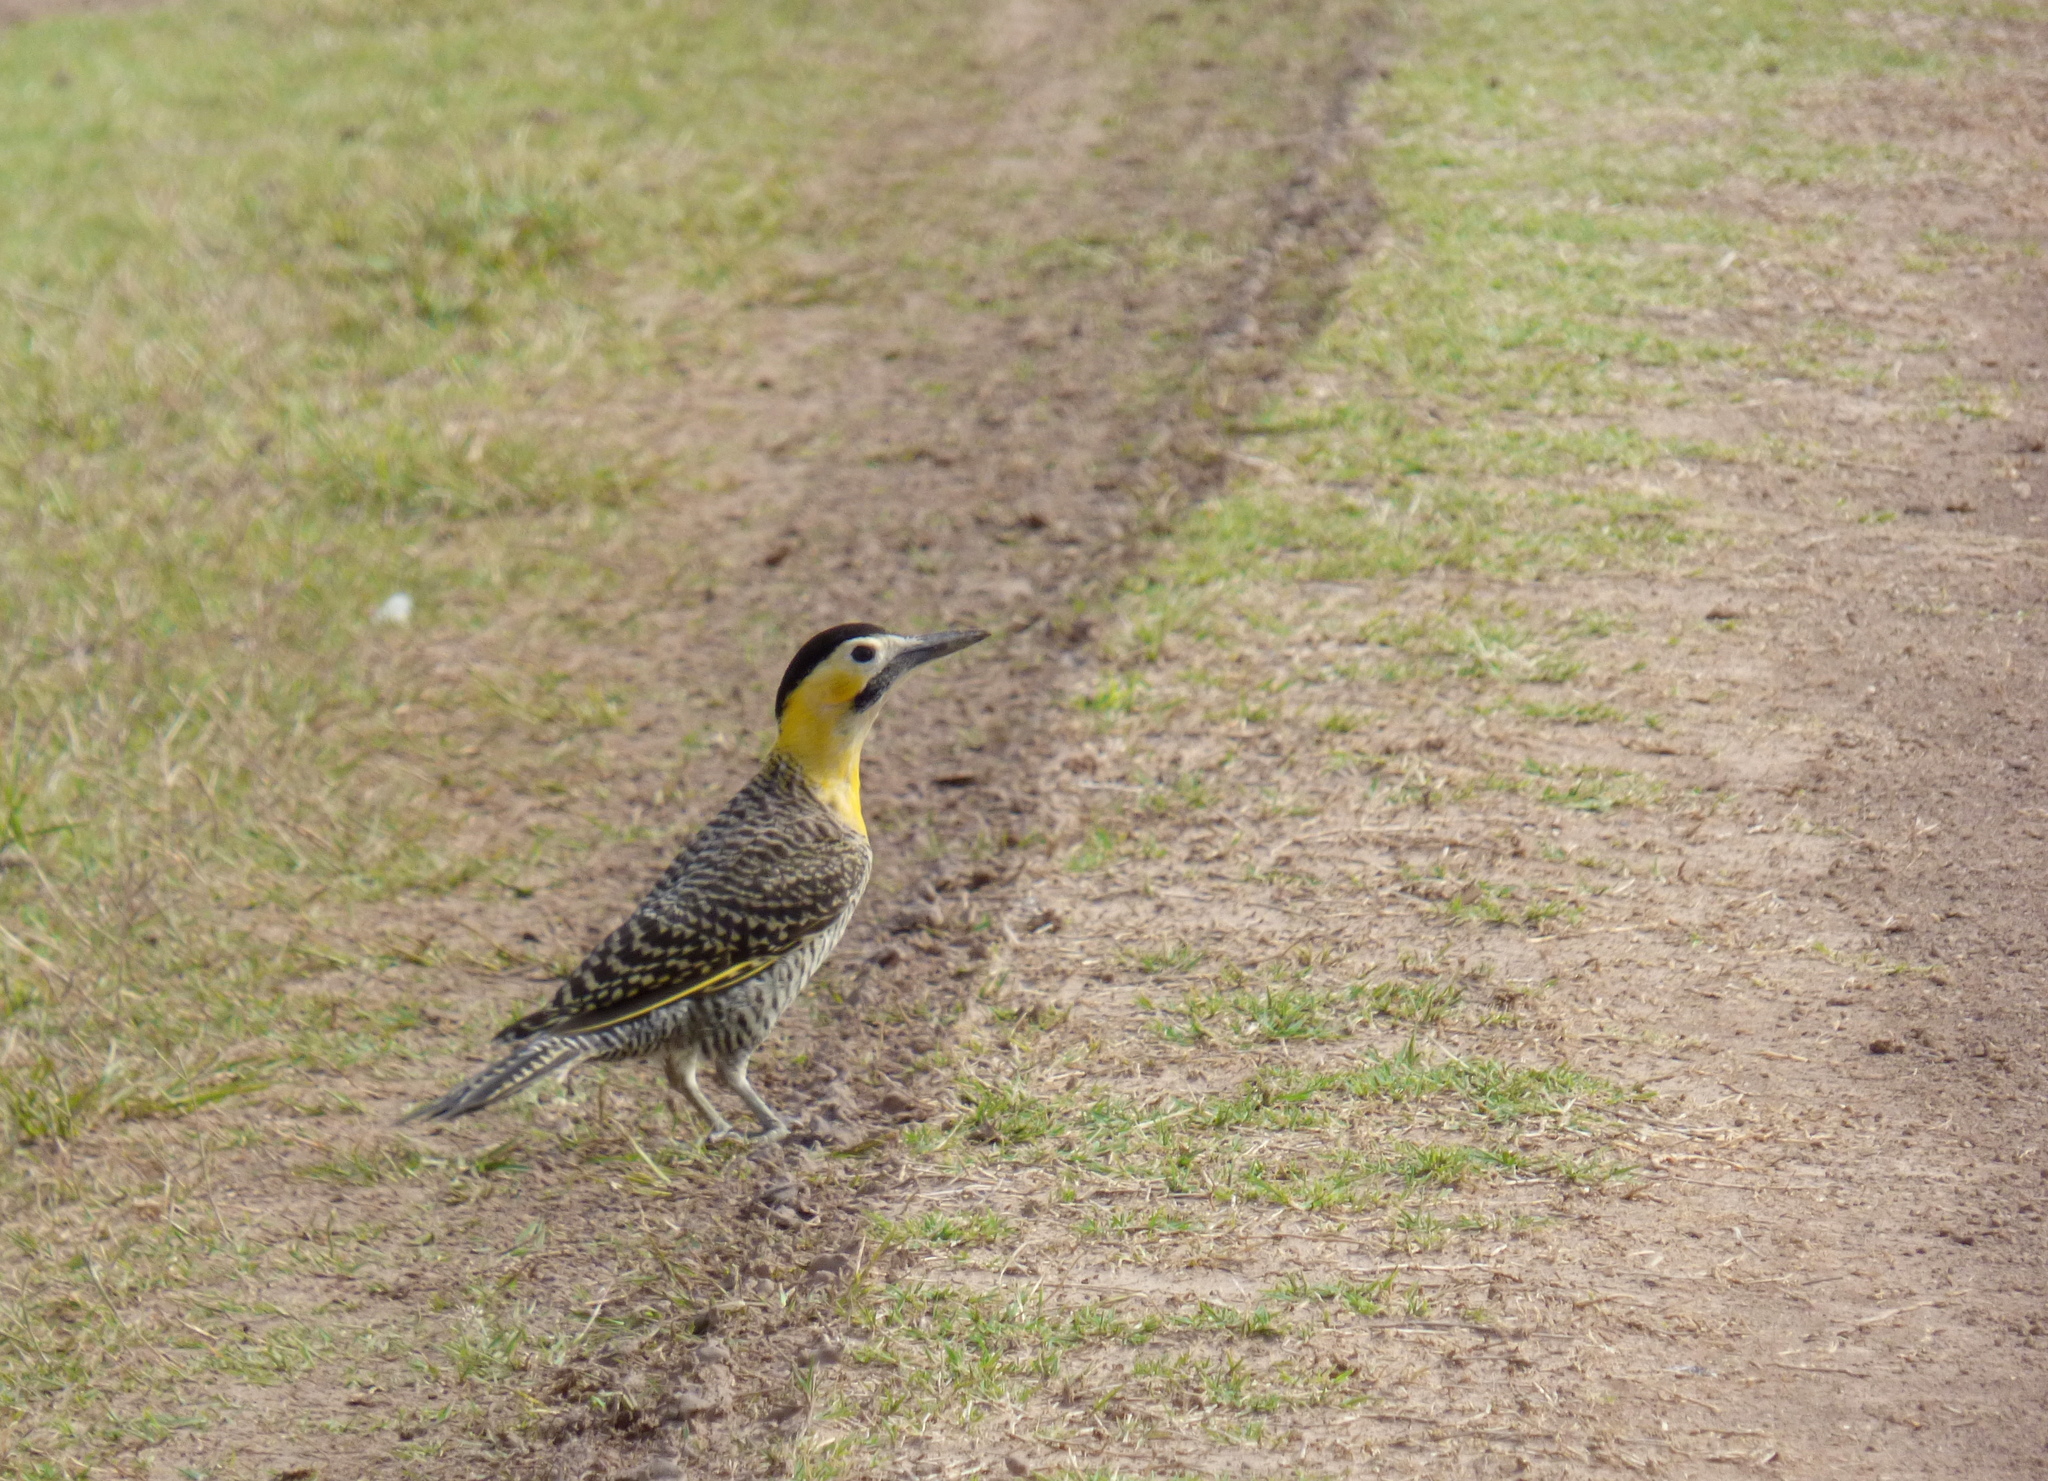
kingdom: Animalia
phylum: Chordata
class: Aves
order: Piciformes
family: Picidae
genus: Colaptes
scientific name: Colaptes campestris
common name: Campo flicker
